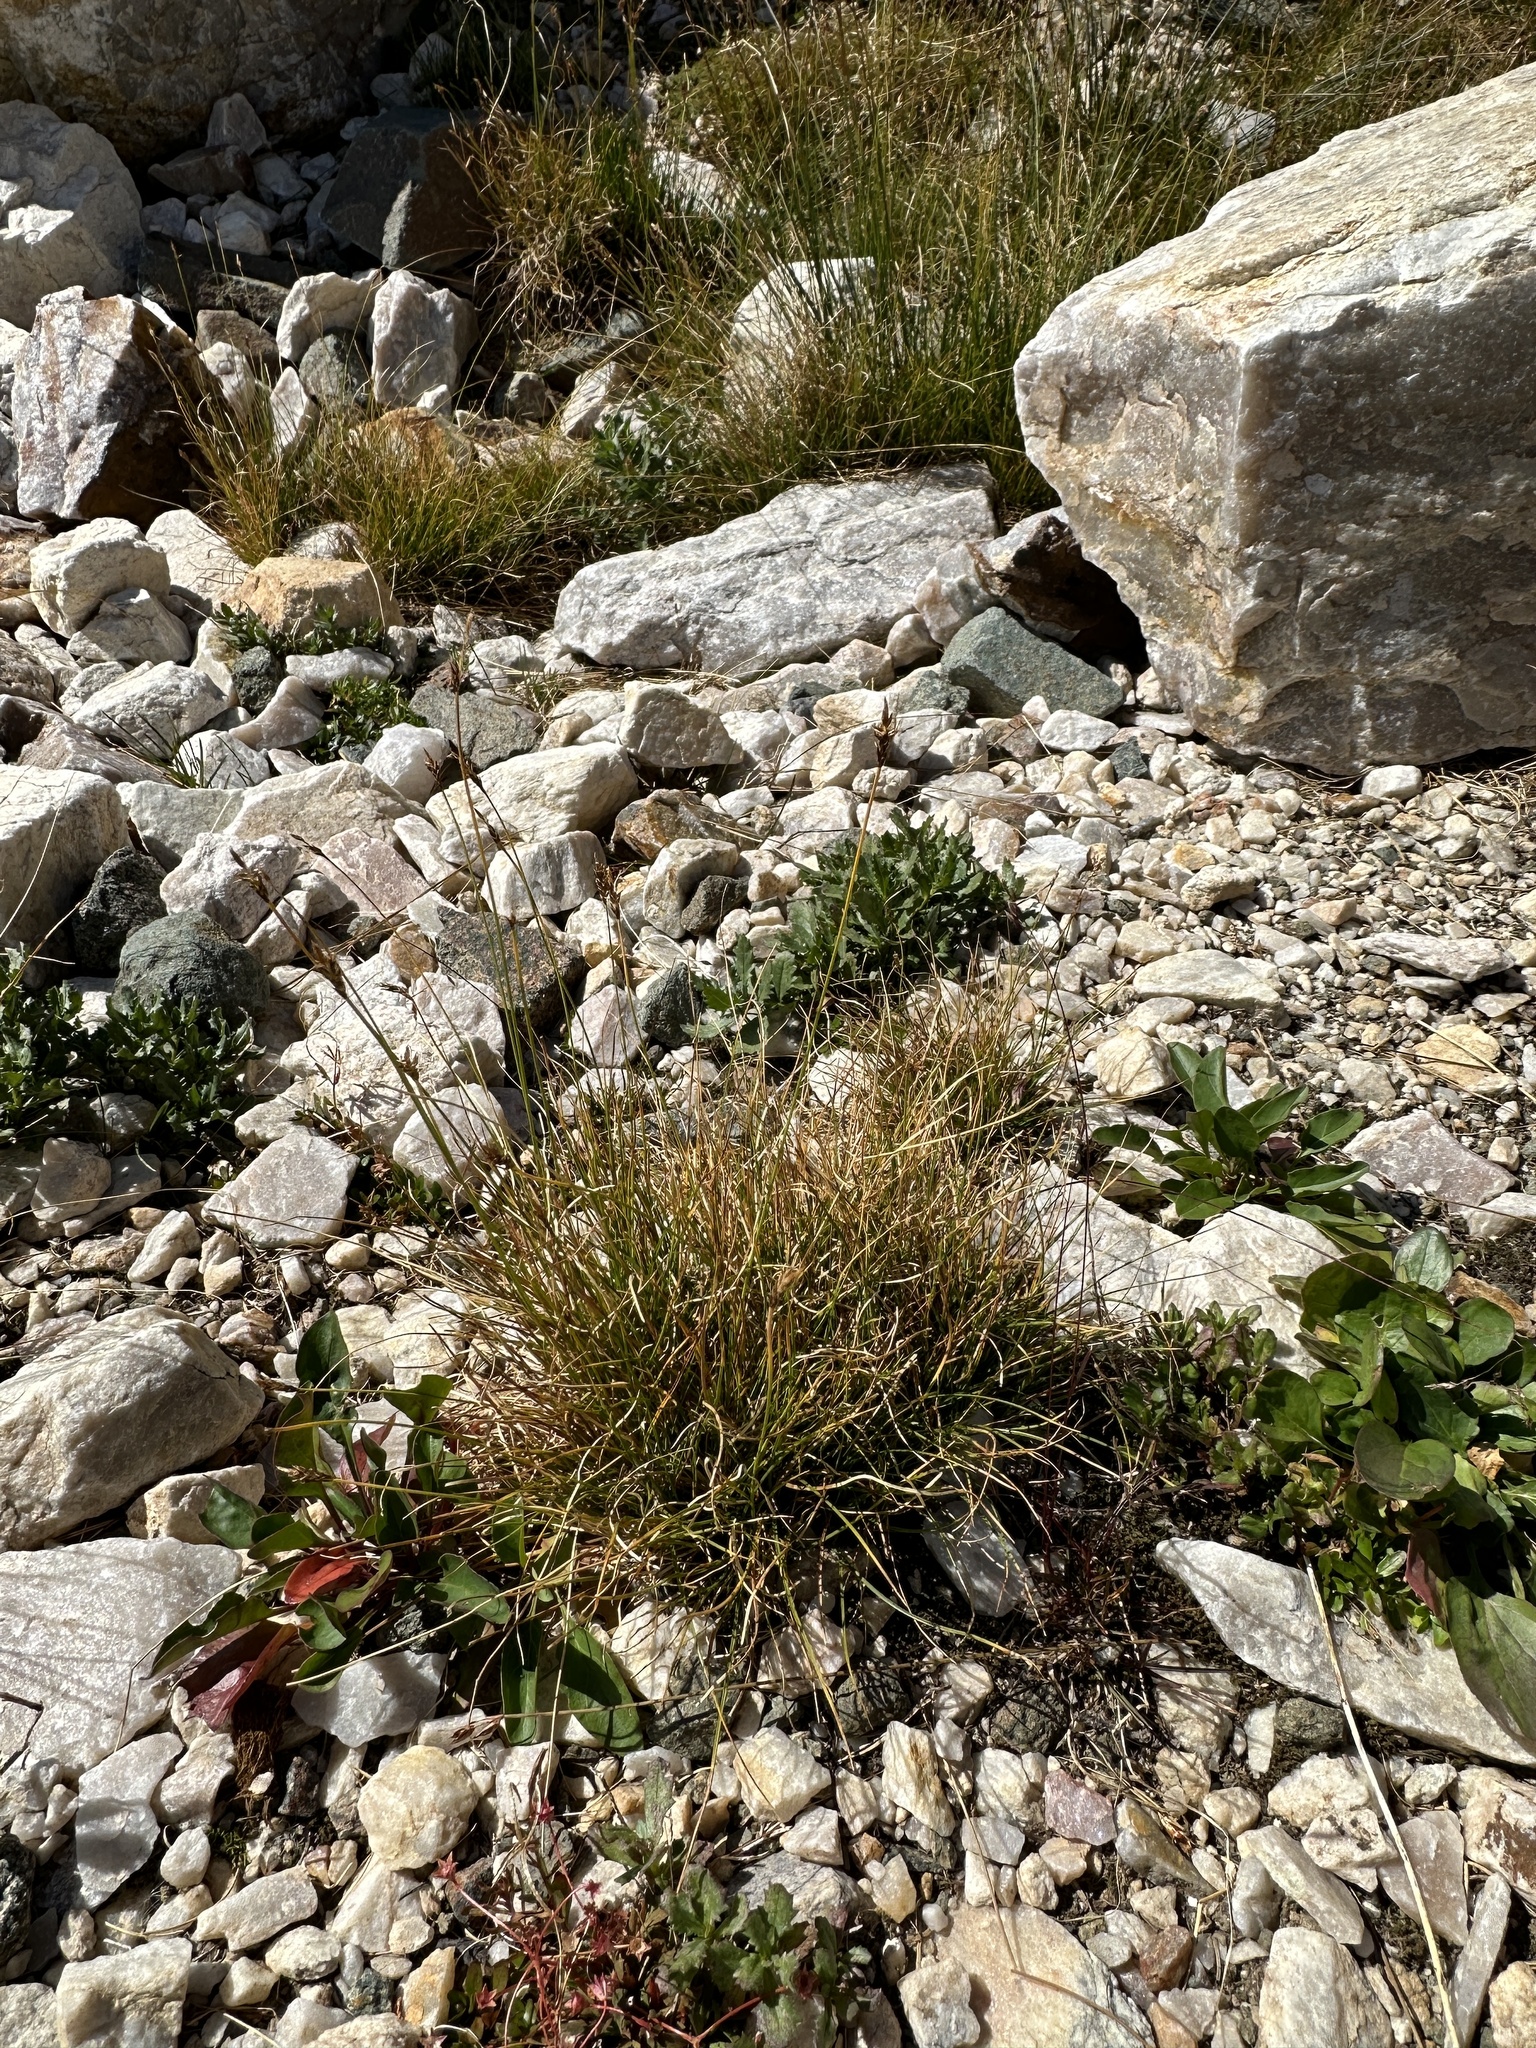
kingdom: Plantae
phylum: Tracheophyta
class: Liliopsida
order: Poales
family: Cyperaceae
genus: Carex
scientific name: Carex micropoda
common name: Small-rooted sedge
